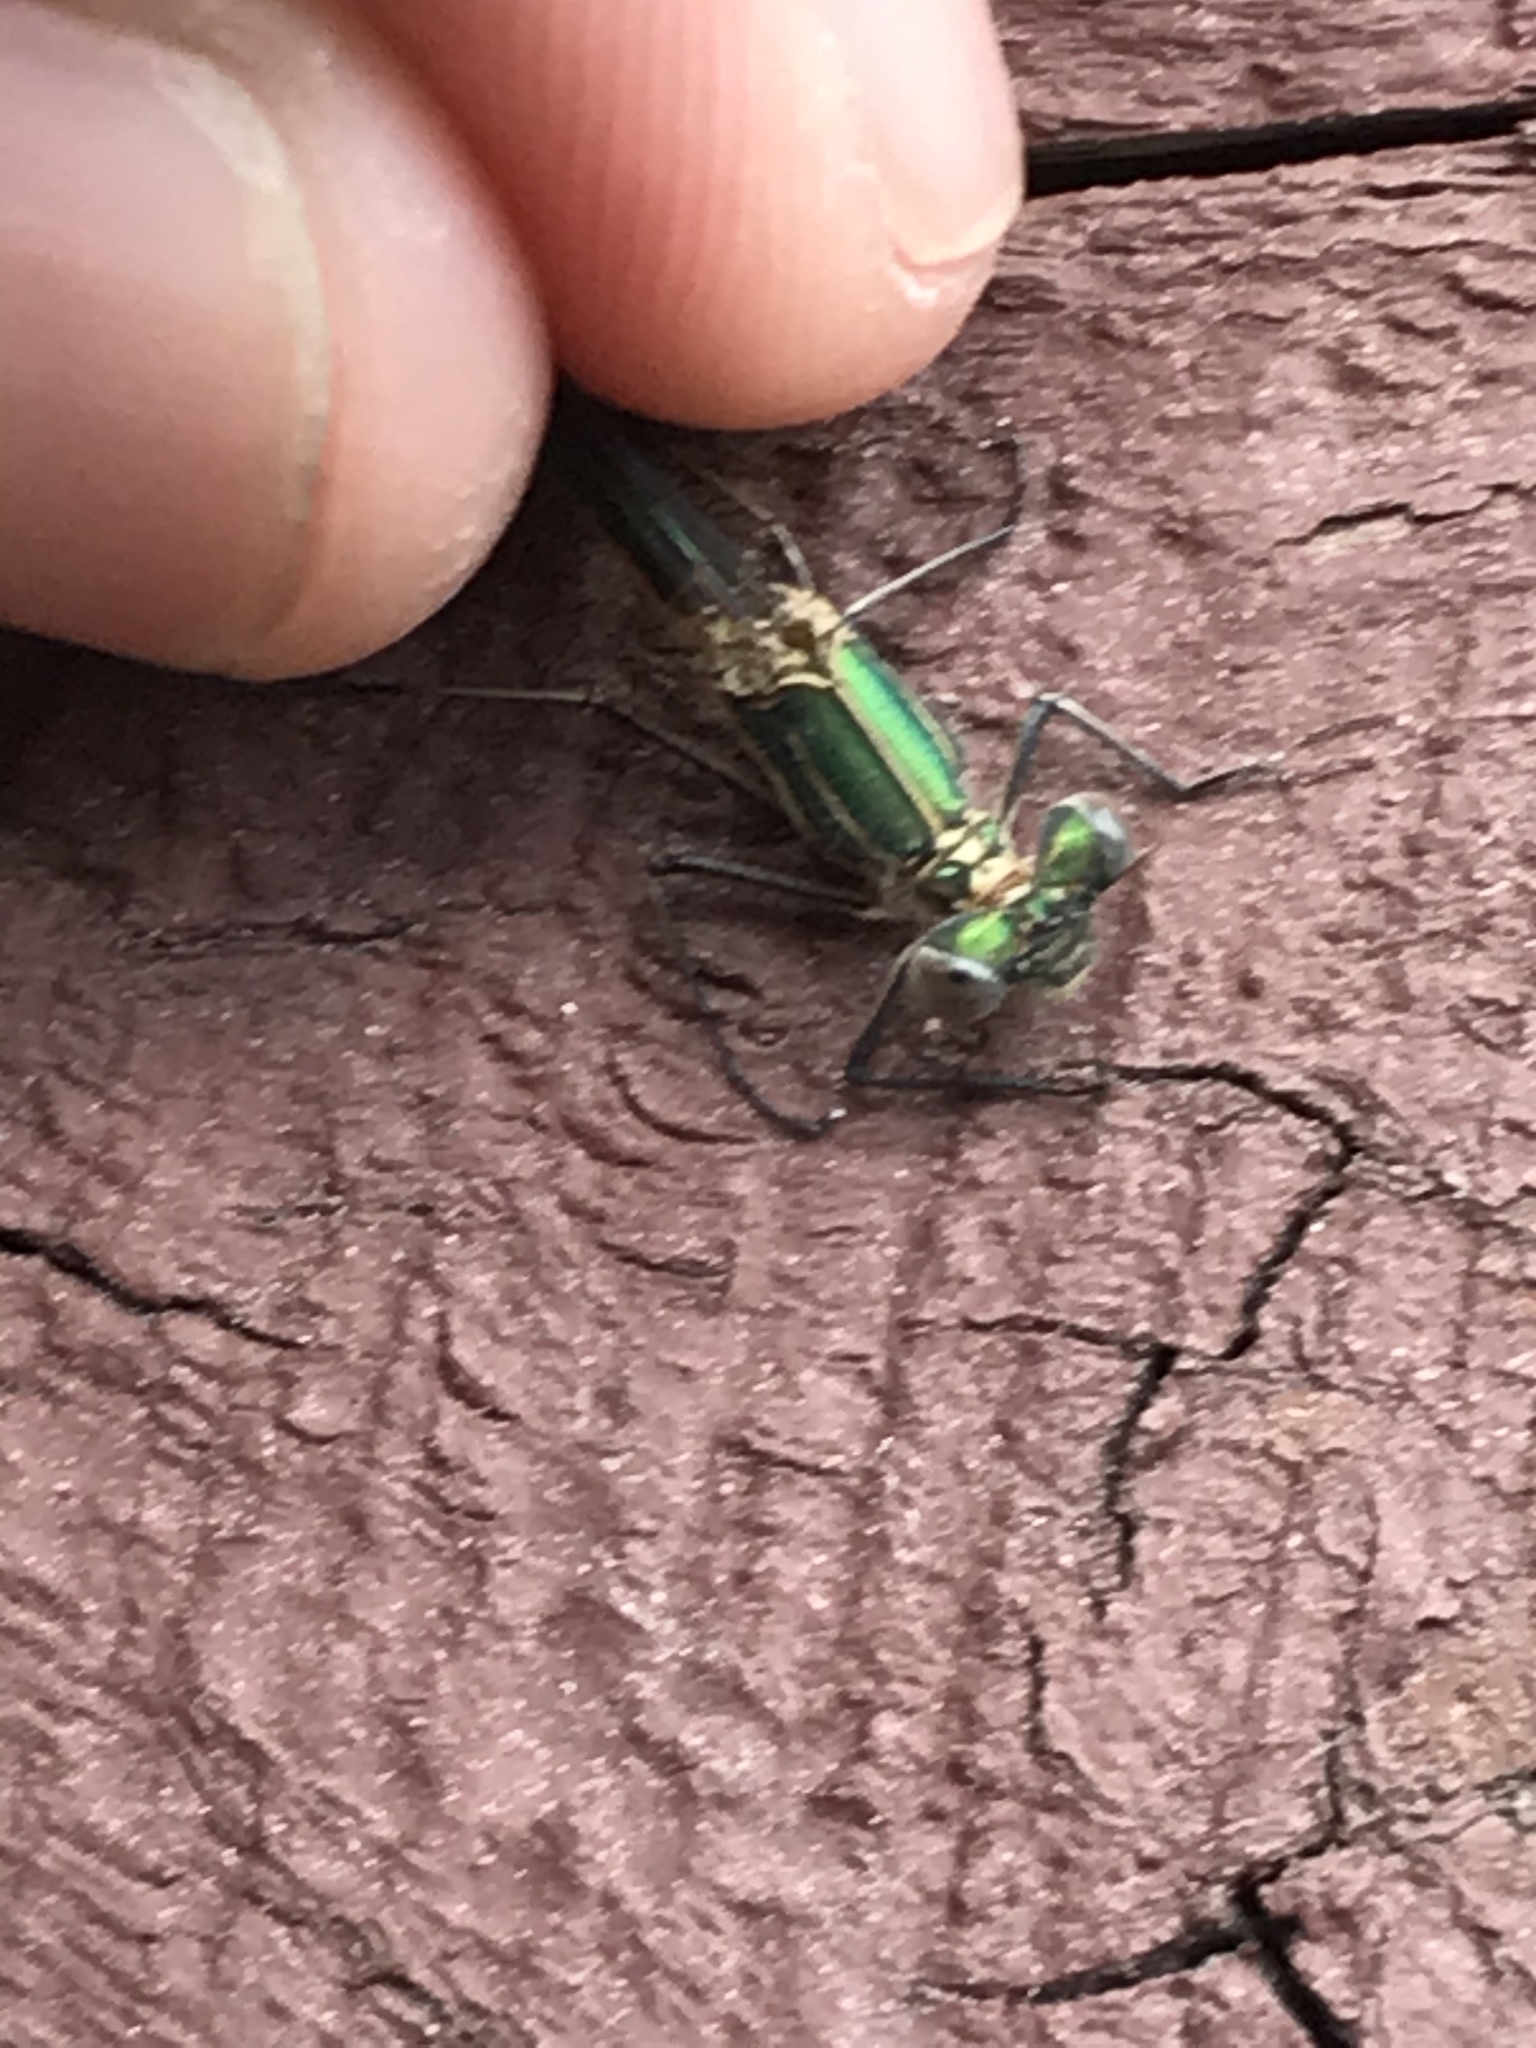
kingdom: Animalia
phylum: Arthropoda
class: Insecta
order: Odonata
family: Lestidae
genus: Lestes
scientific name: Lestes dryas
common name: Scarce emerald damselfly
